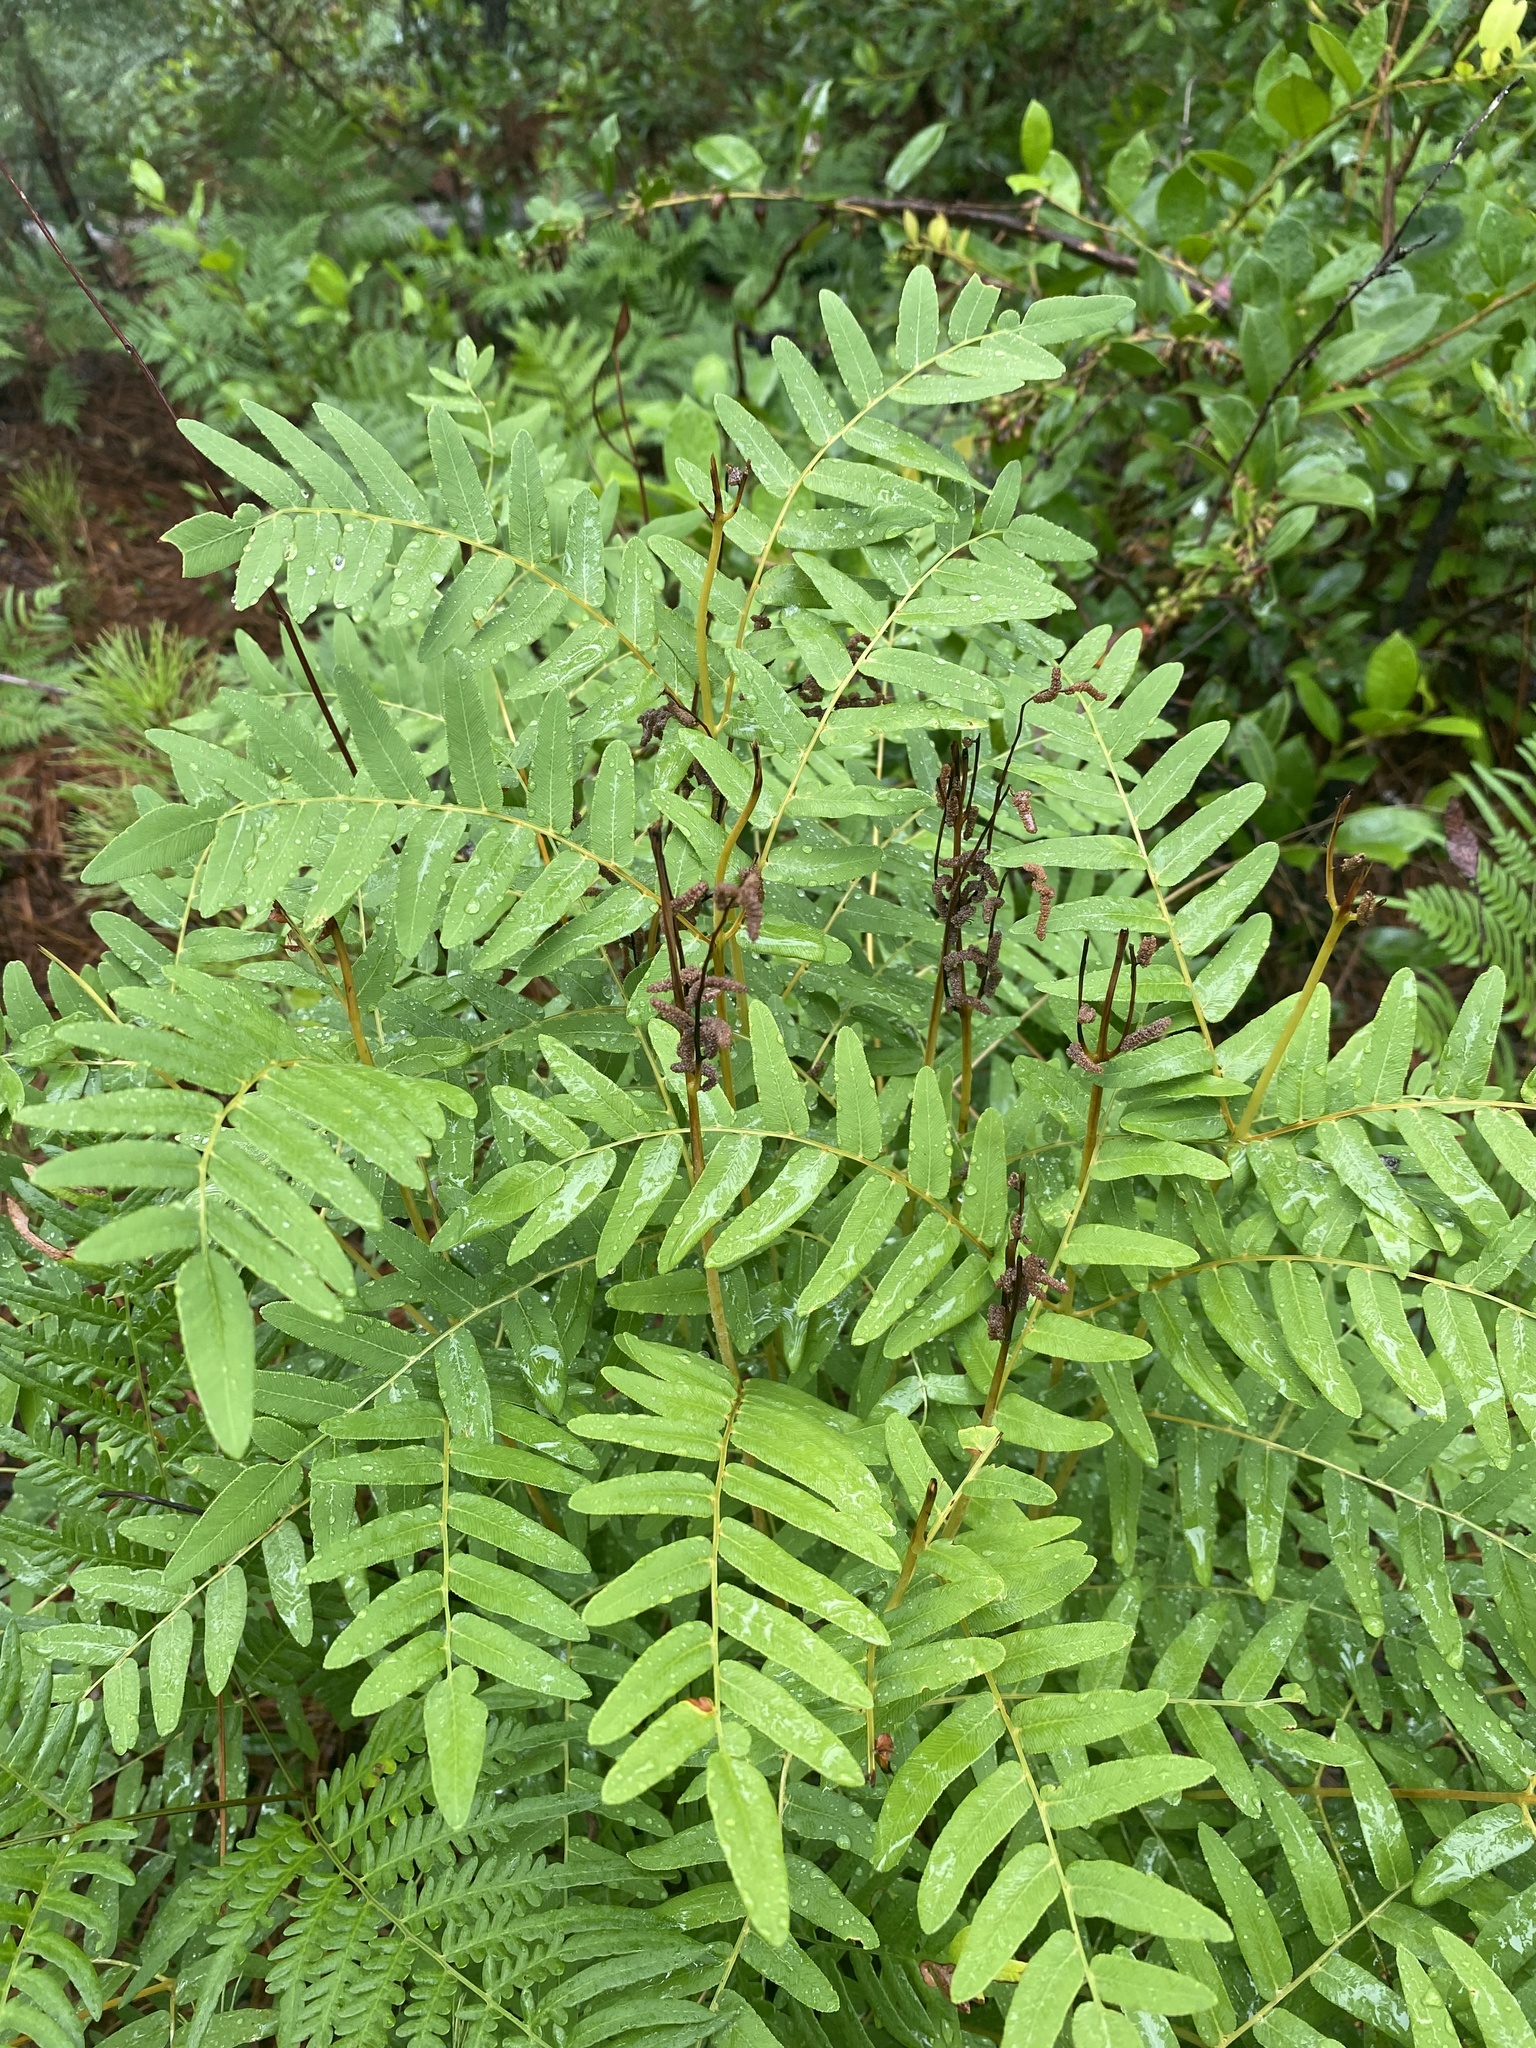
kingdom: Plantae
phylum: Tracheophyta
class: Polypodiopsida
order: Osmundales
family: Osmundaceae
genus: Osmunda
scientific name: Osmunda spectabilis
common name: American royal fern
